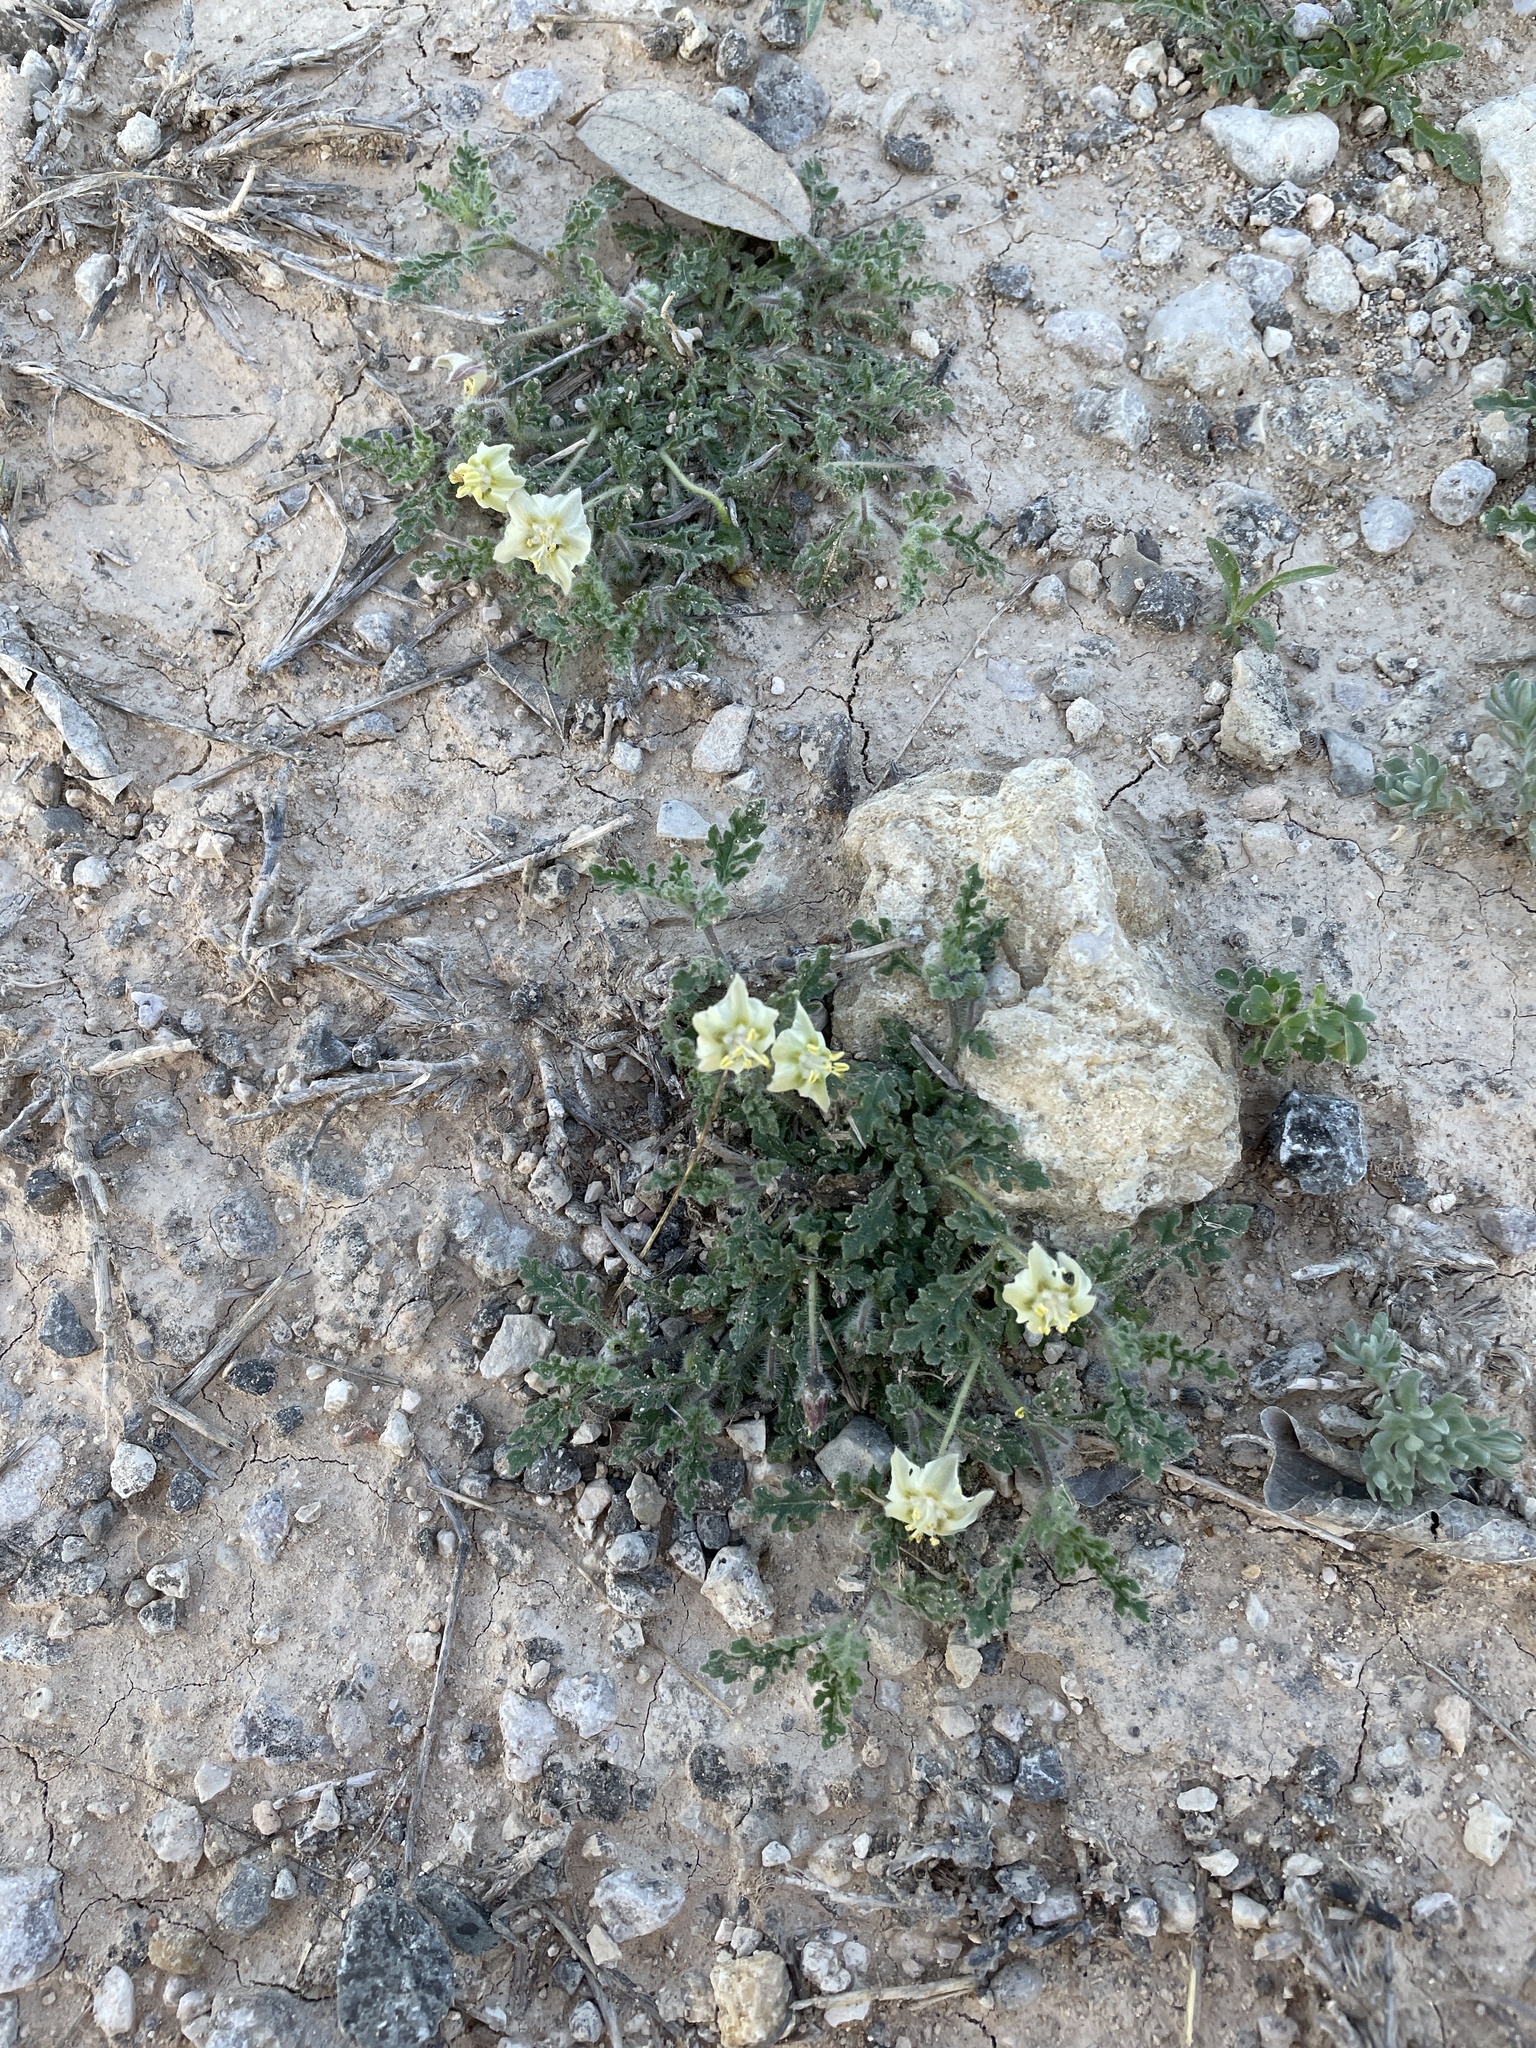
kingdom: Plantae
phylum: Tracheophyta
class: Magnoliopsida
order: Solanales
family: Solanaceae
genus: Chamaesaracha
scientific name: Chamaesaracha coniodes
